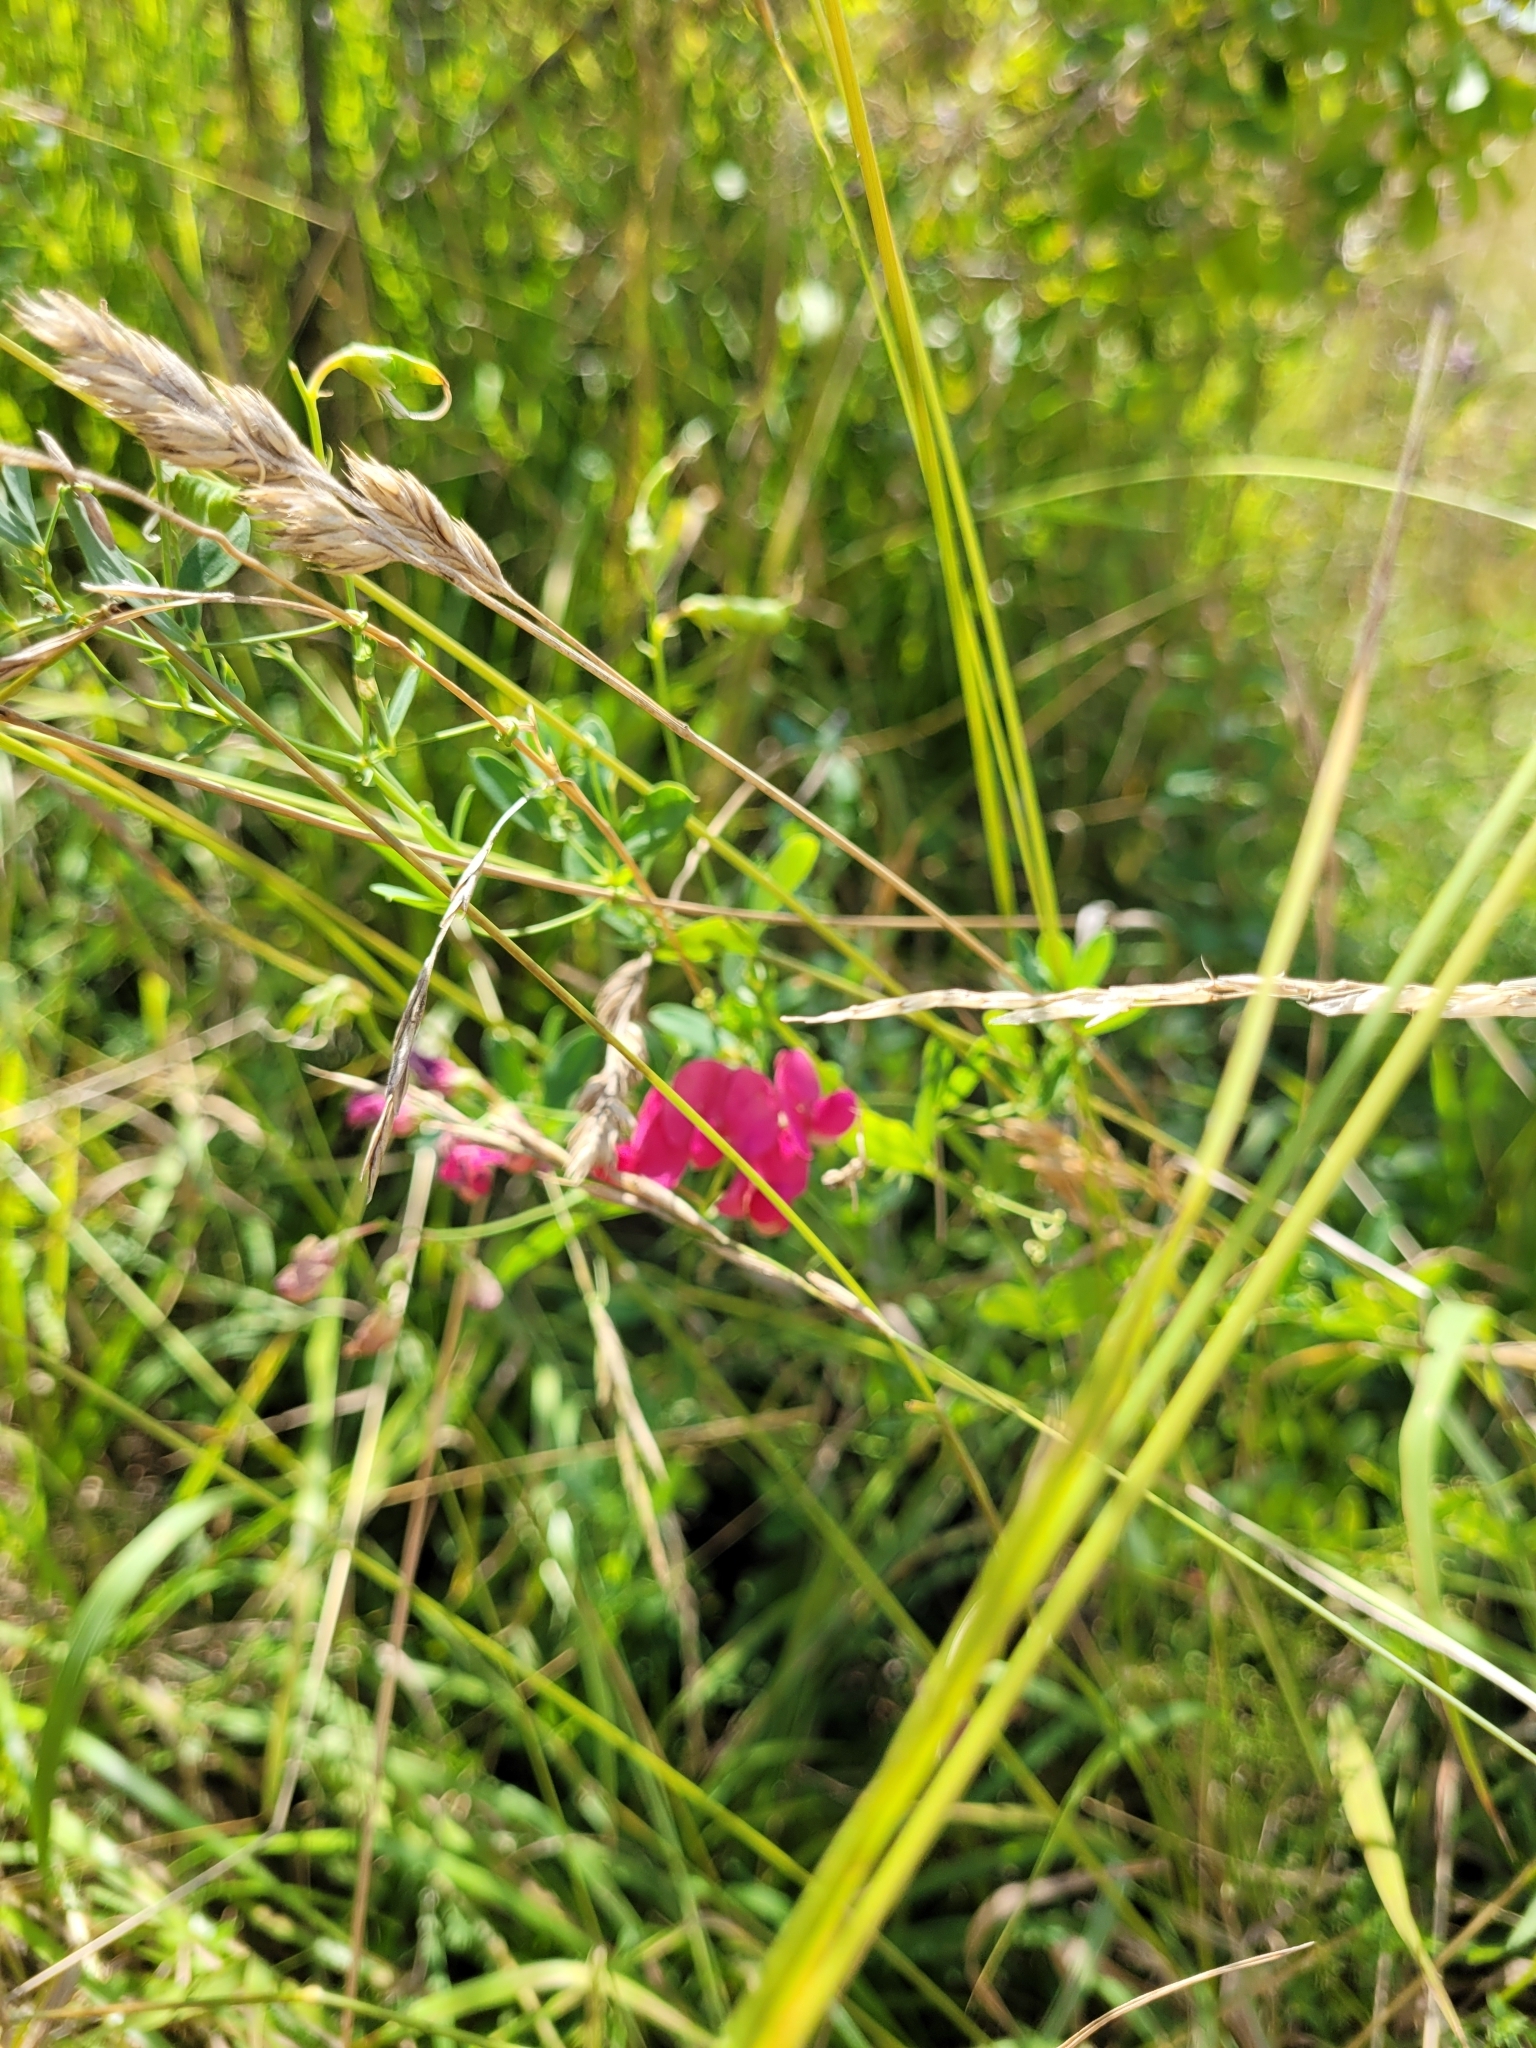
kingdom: Plantae
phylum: Tracheophyta
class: Magnoliopsida
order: Fabales
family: Fabaceae
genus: Lathyrus
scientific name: Lathyrus tuberosus
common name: Tuberous pea
